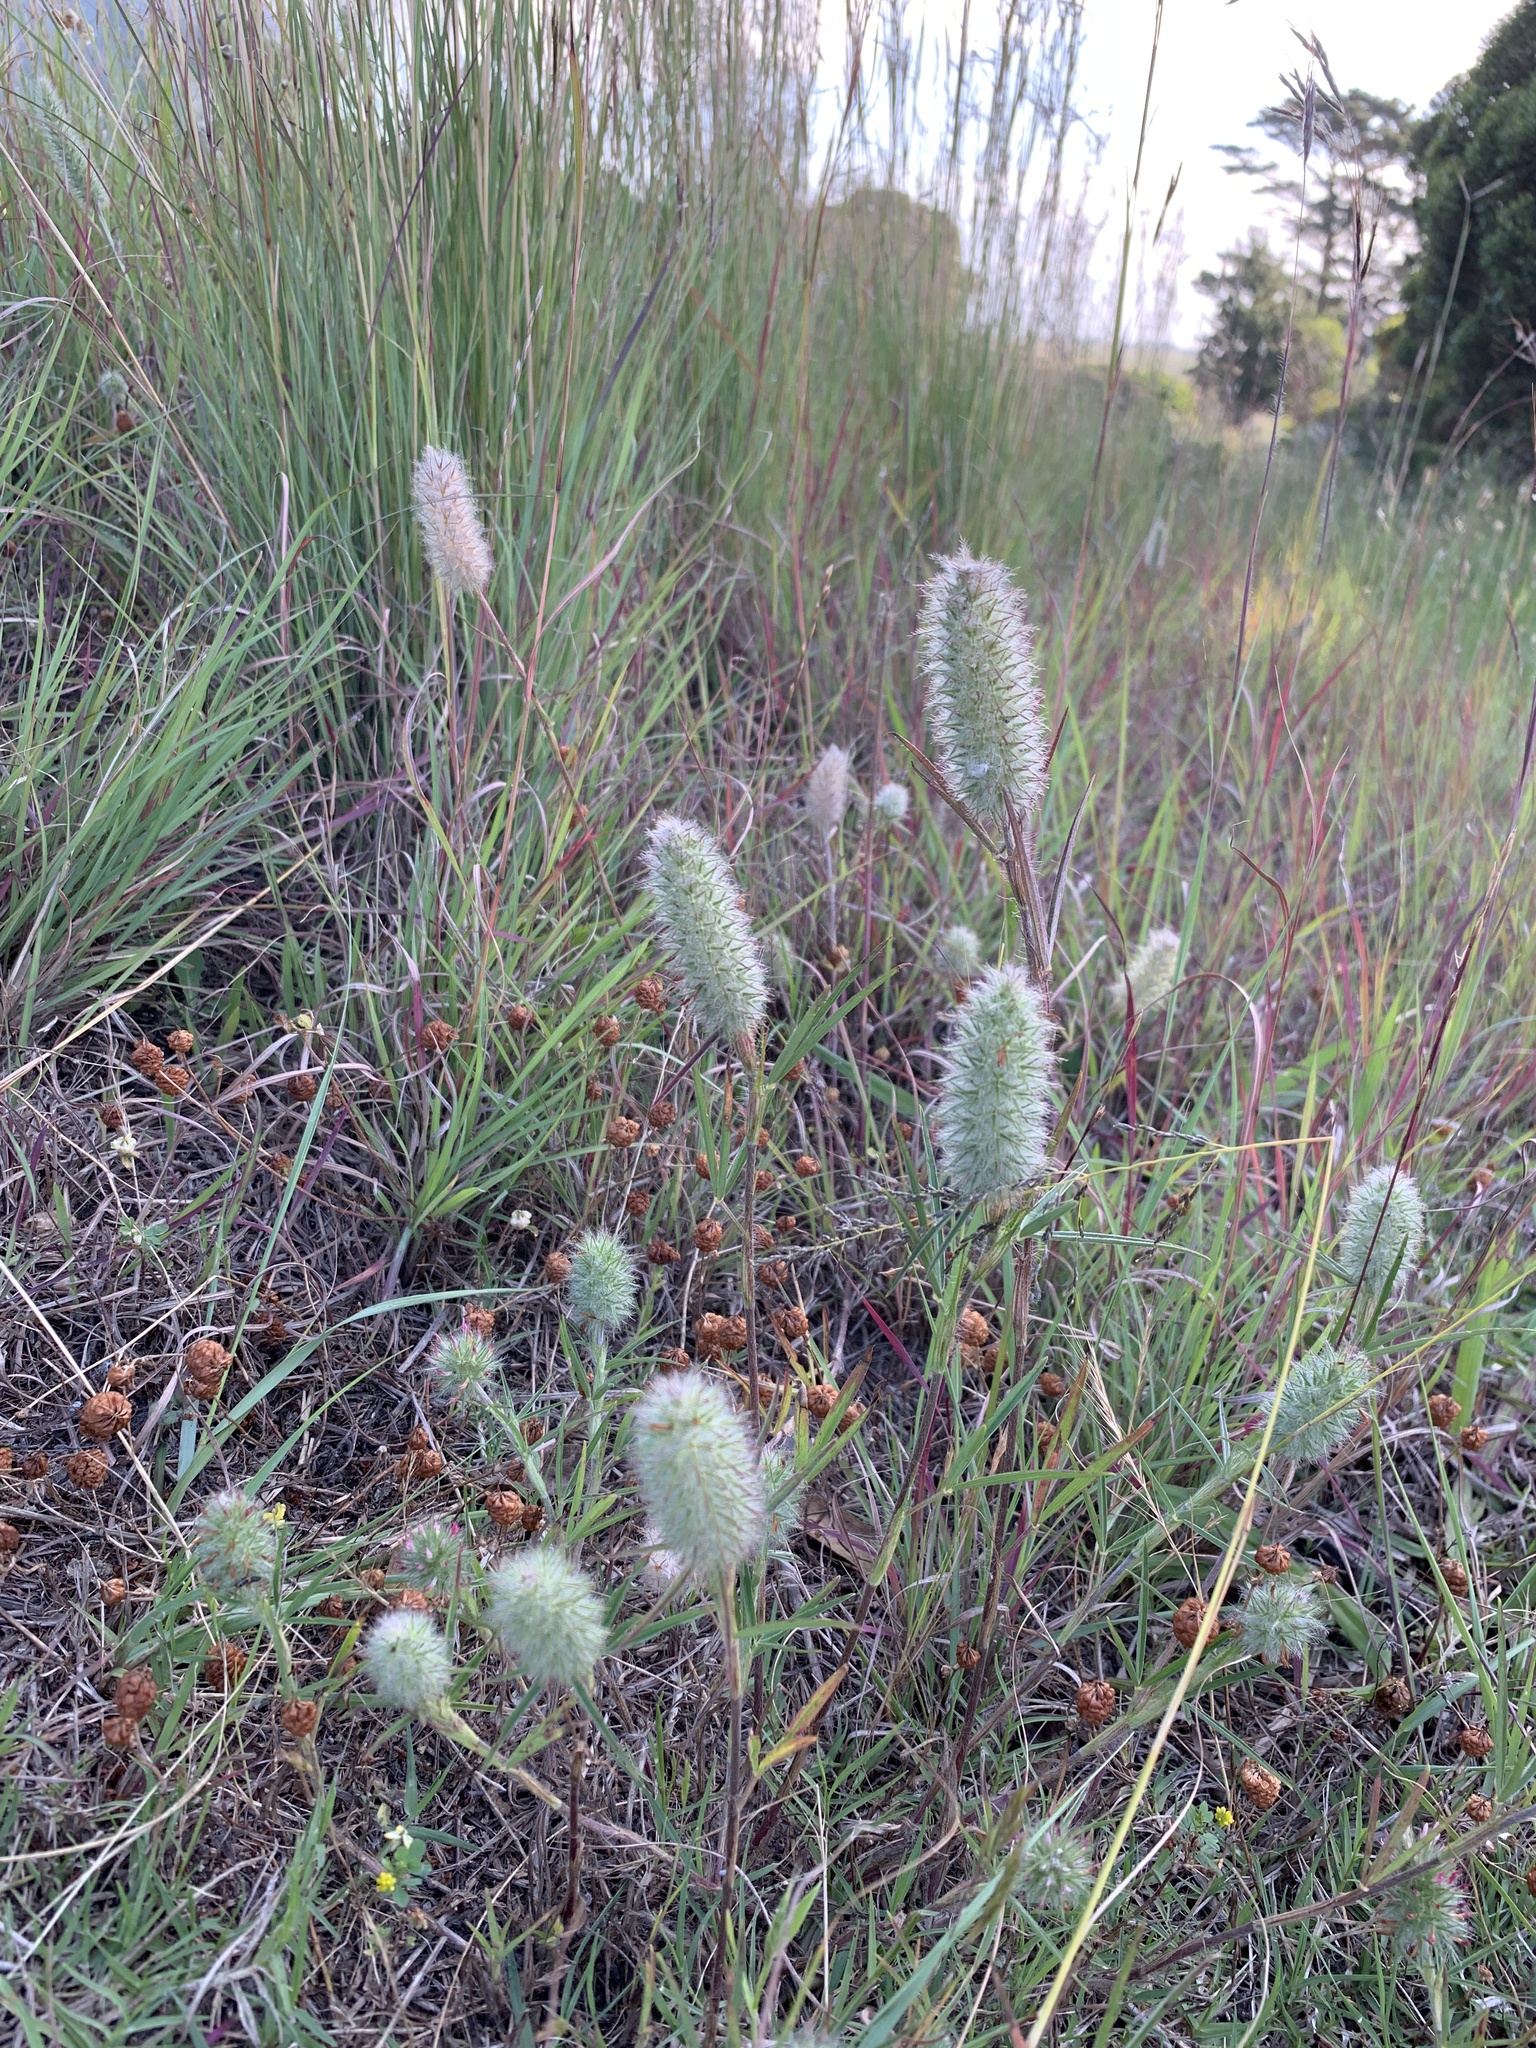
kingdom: Plantae
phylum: Tracheophyta
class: Magnoliopsida
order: Fabales
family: Fabaceae
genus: Trifolium
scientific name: Trifolium angustifolium
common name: Narrow clover
